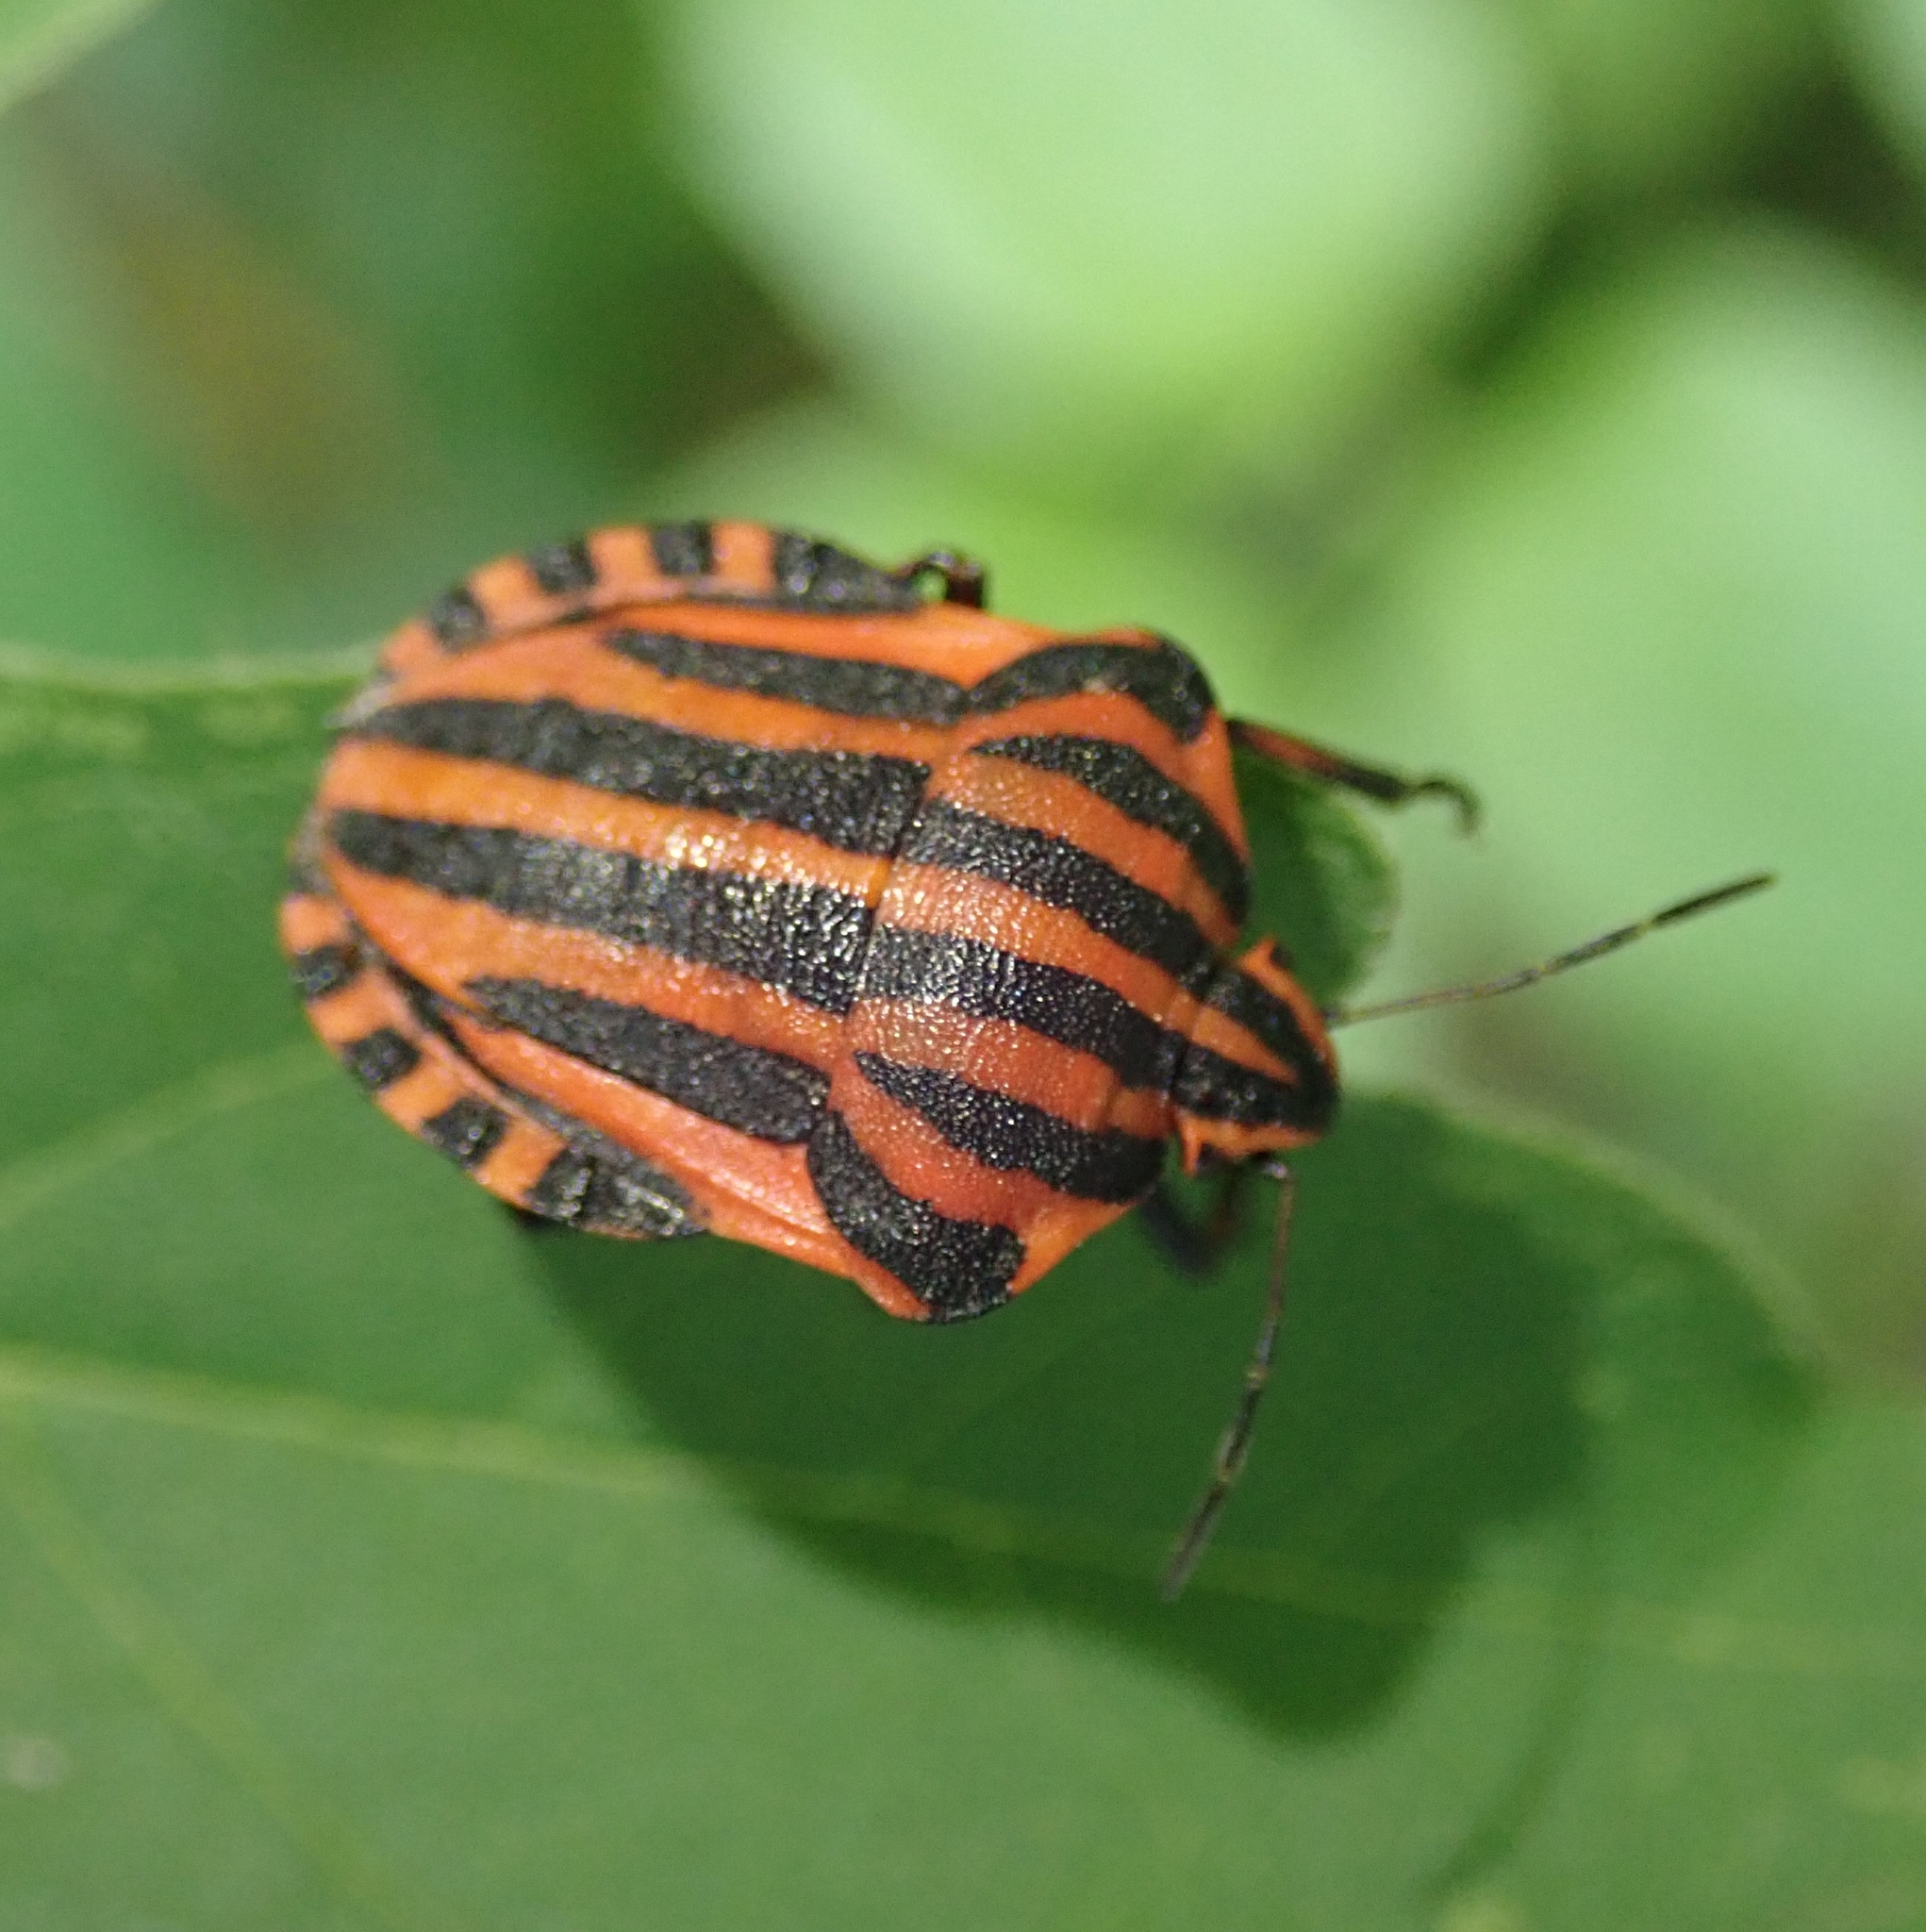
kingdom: Animalia
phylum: Arthropoda
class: Insecta
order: Hemiptera
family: Pentatomidae
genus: Graphosoma
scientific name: Graphosoma italicum
